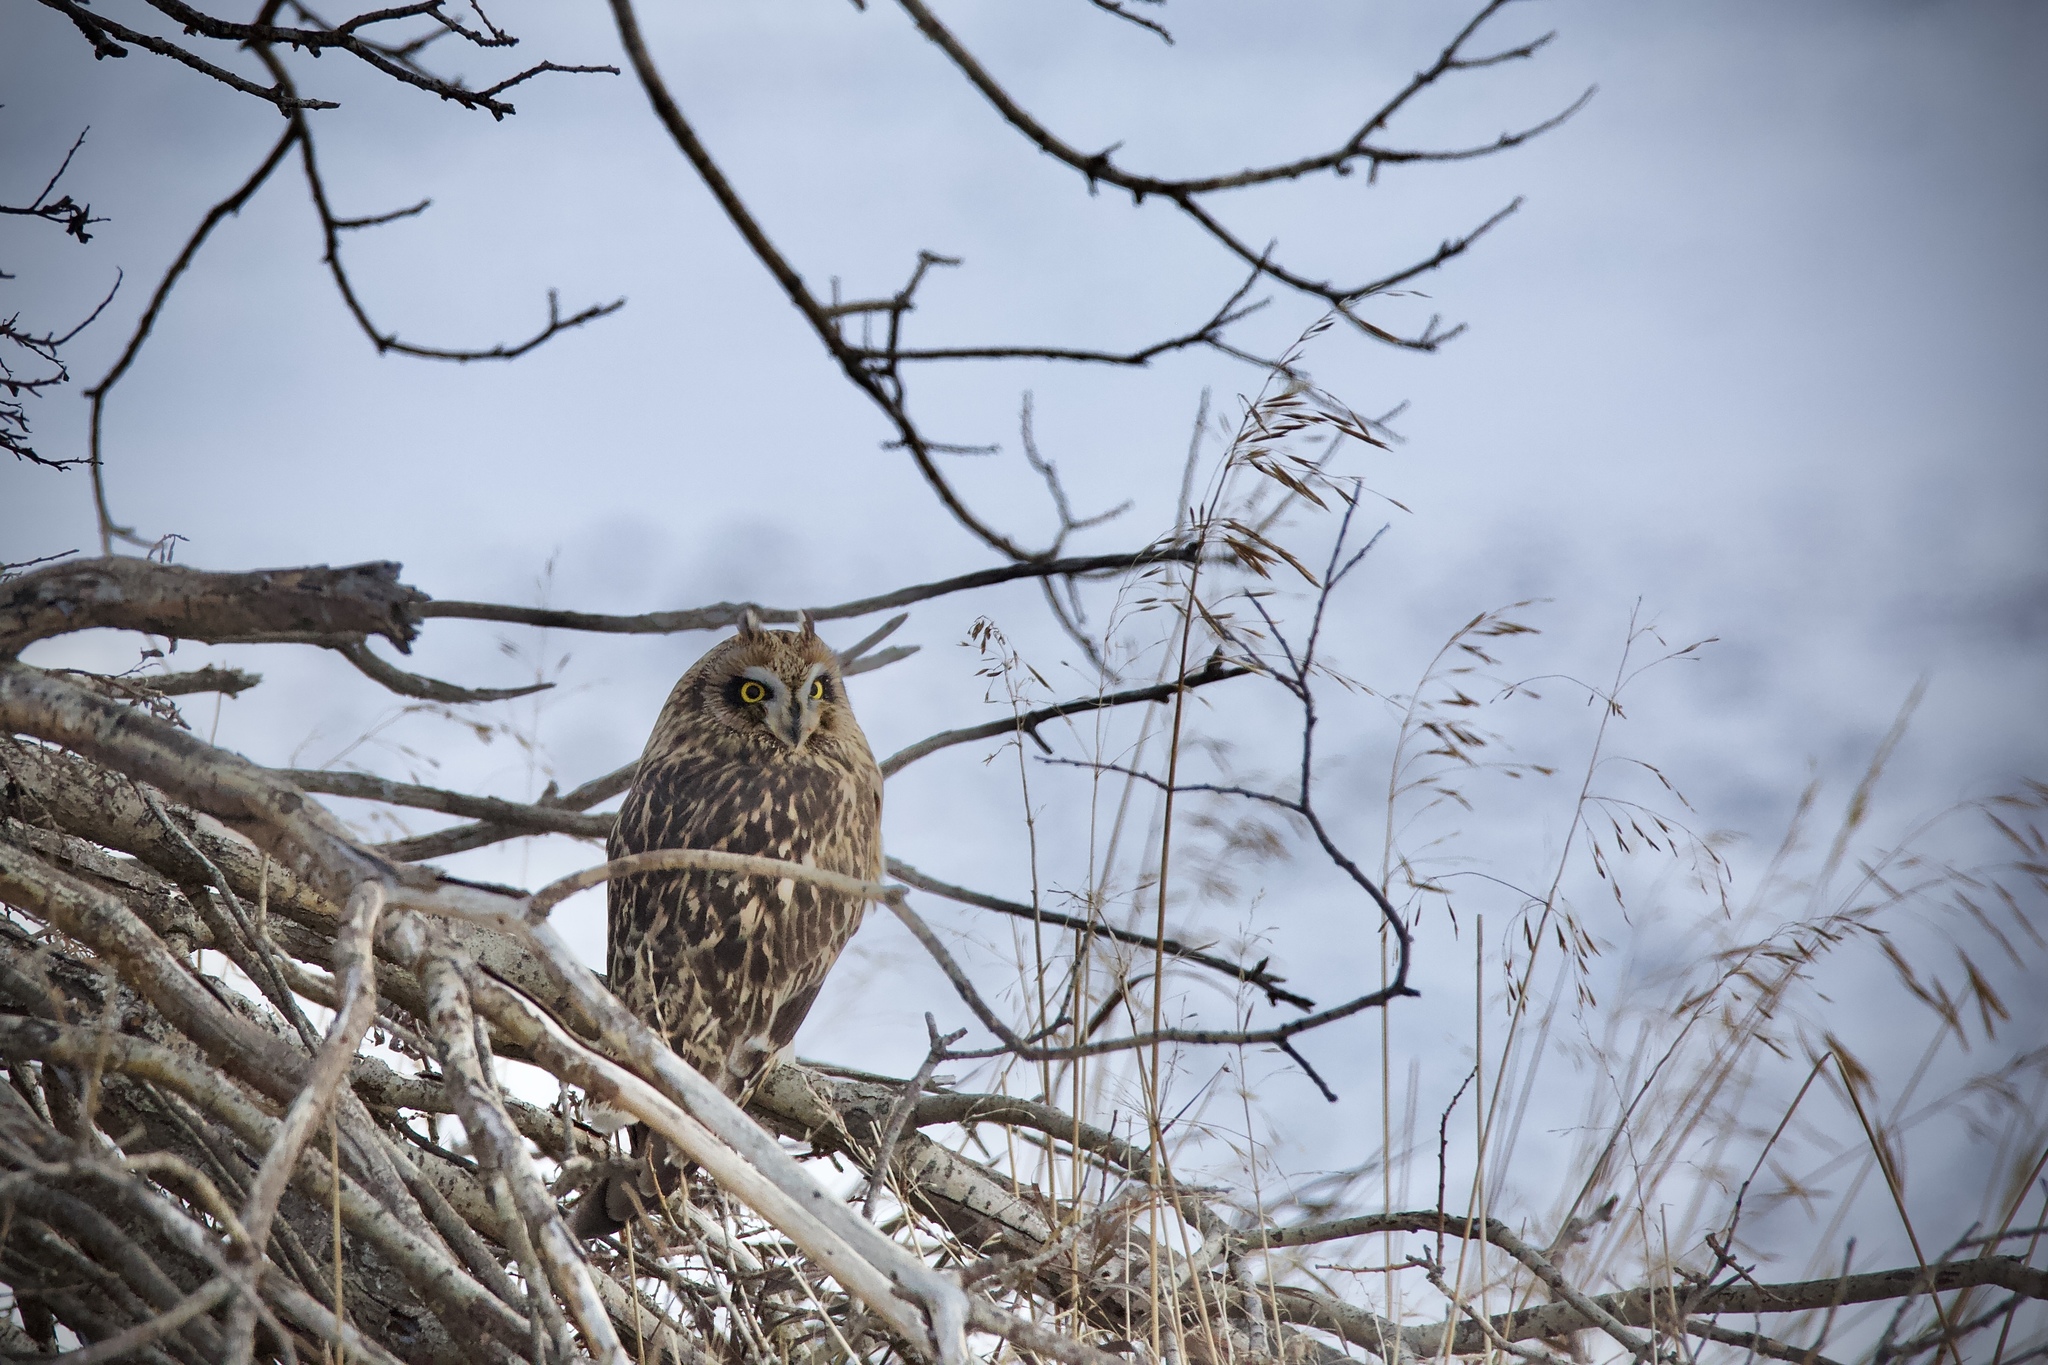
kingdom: Animalia
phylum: Chordata
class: Aves
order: Strigiformes
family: Strigidae
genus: Asio
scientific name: Asio flammeus
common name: Short-eared owl
